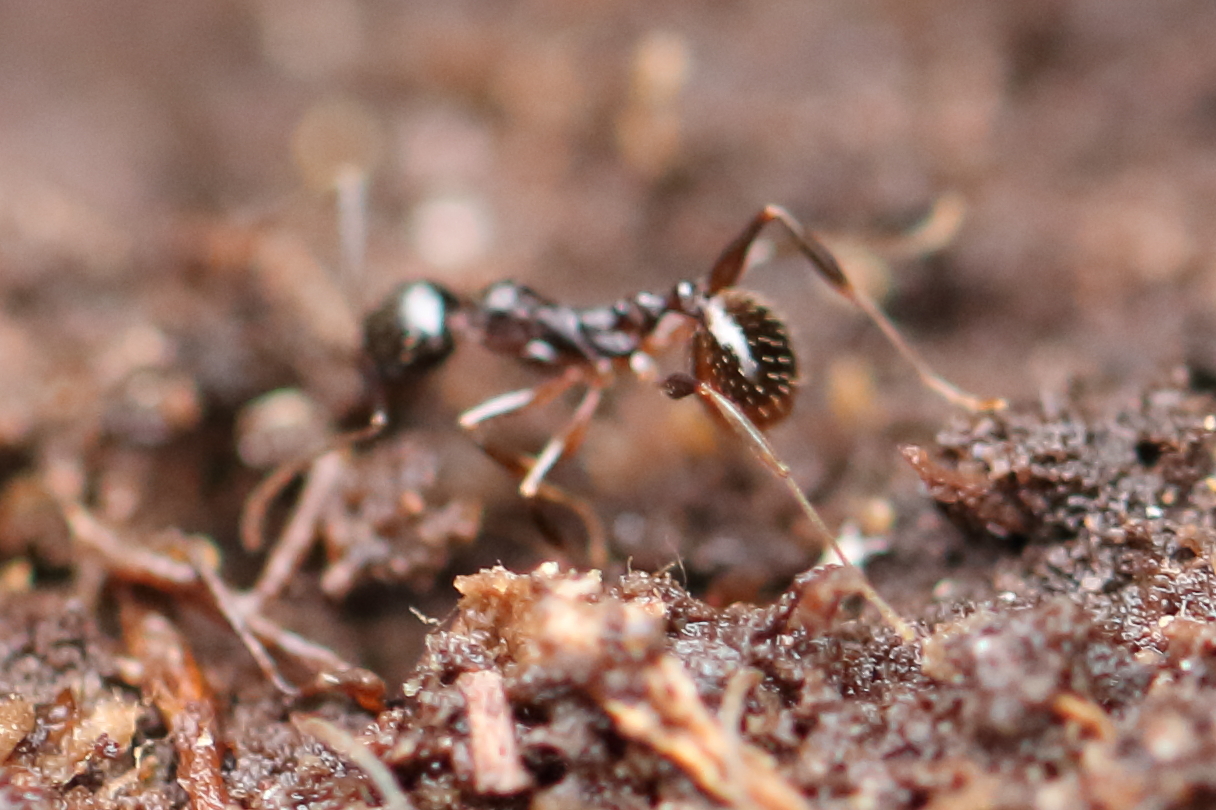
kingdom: Animalia
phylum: Arthropoda
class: Insecta
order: Hymenoptera
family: Formicidae
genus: Aphaenogaster
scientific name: Aphaenogaster rudis
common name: Winnow ant
